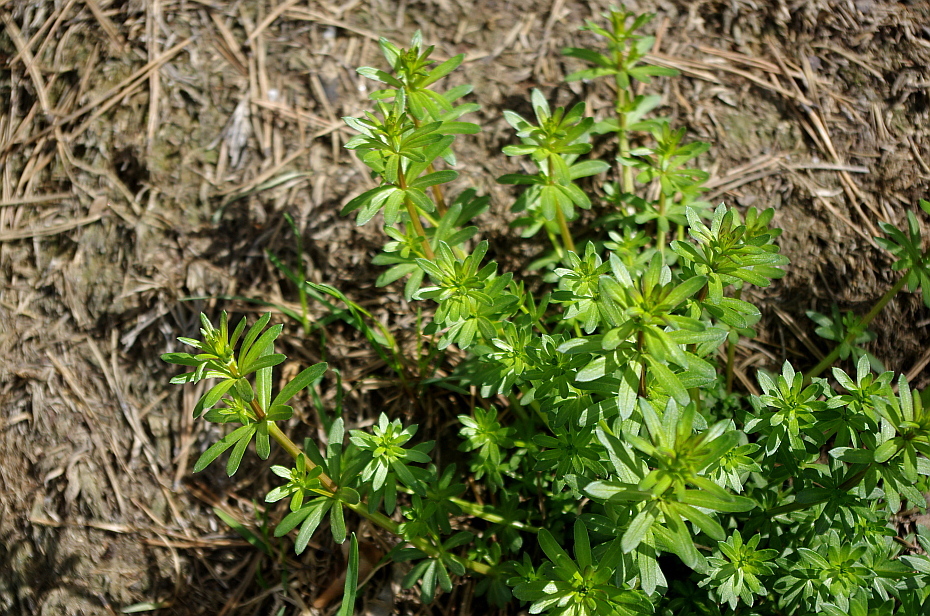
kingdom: Plantae
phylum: Tracheophyta
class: Magnoliopsida
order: Gentianales
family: Rubiaceae
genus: Galium
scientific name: Galium mollugo
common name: Hedge bedstraw
